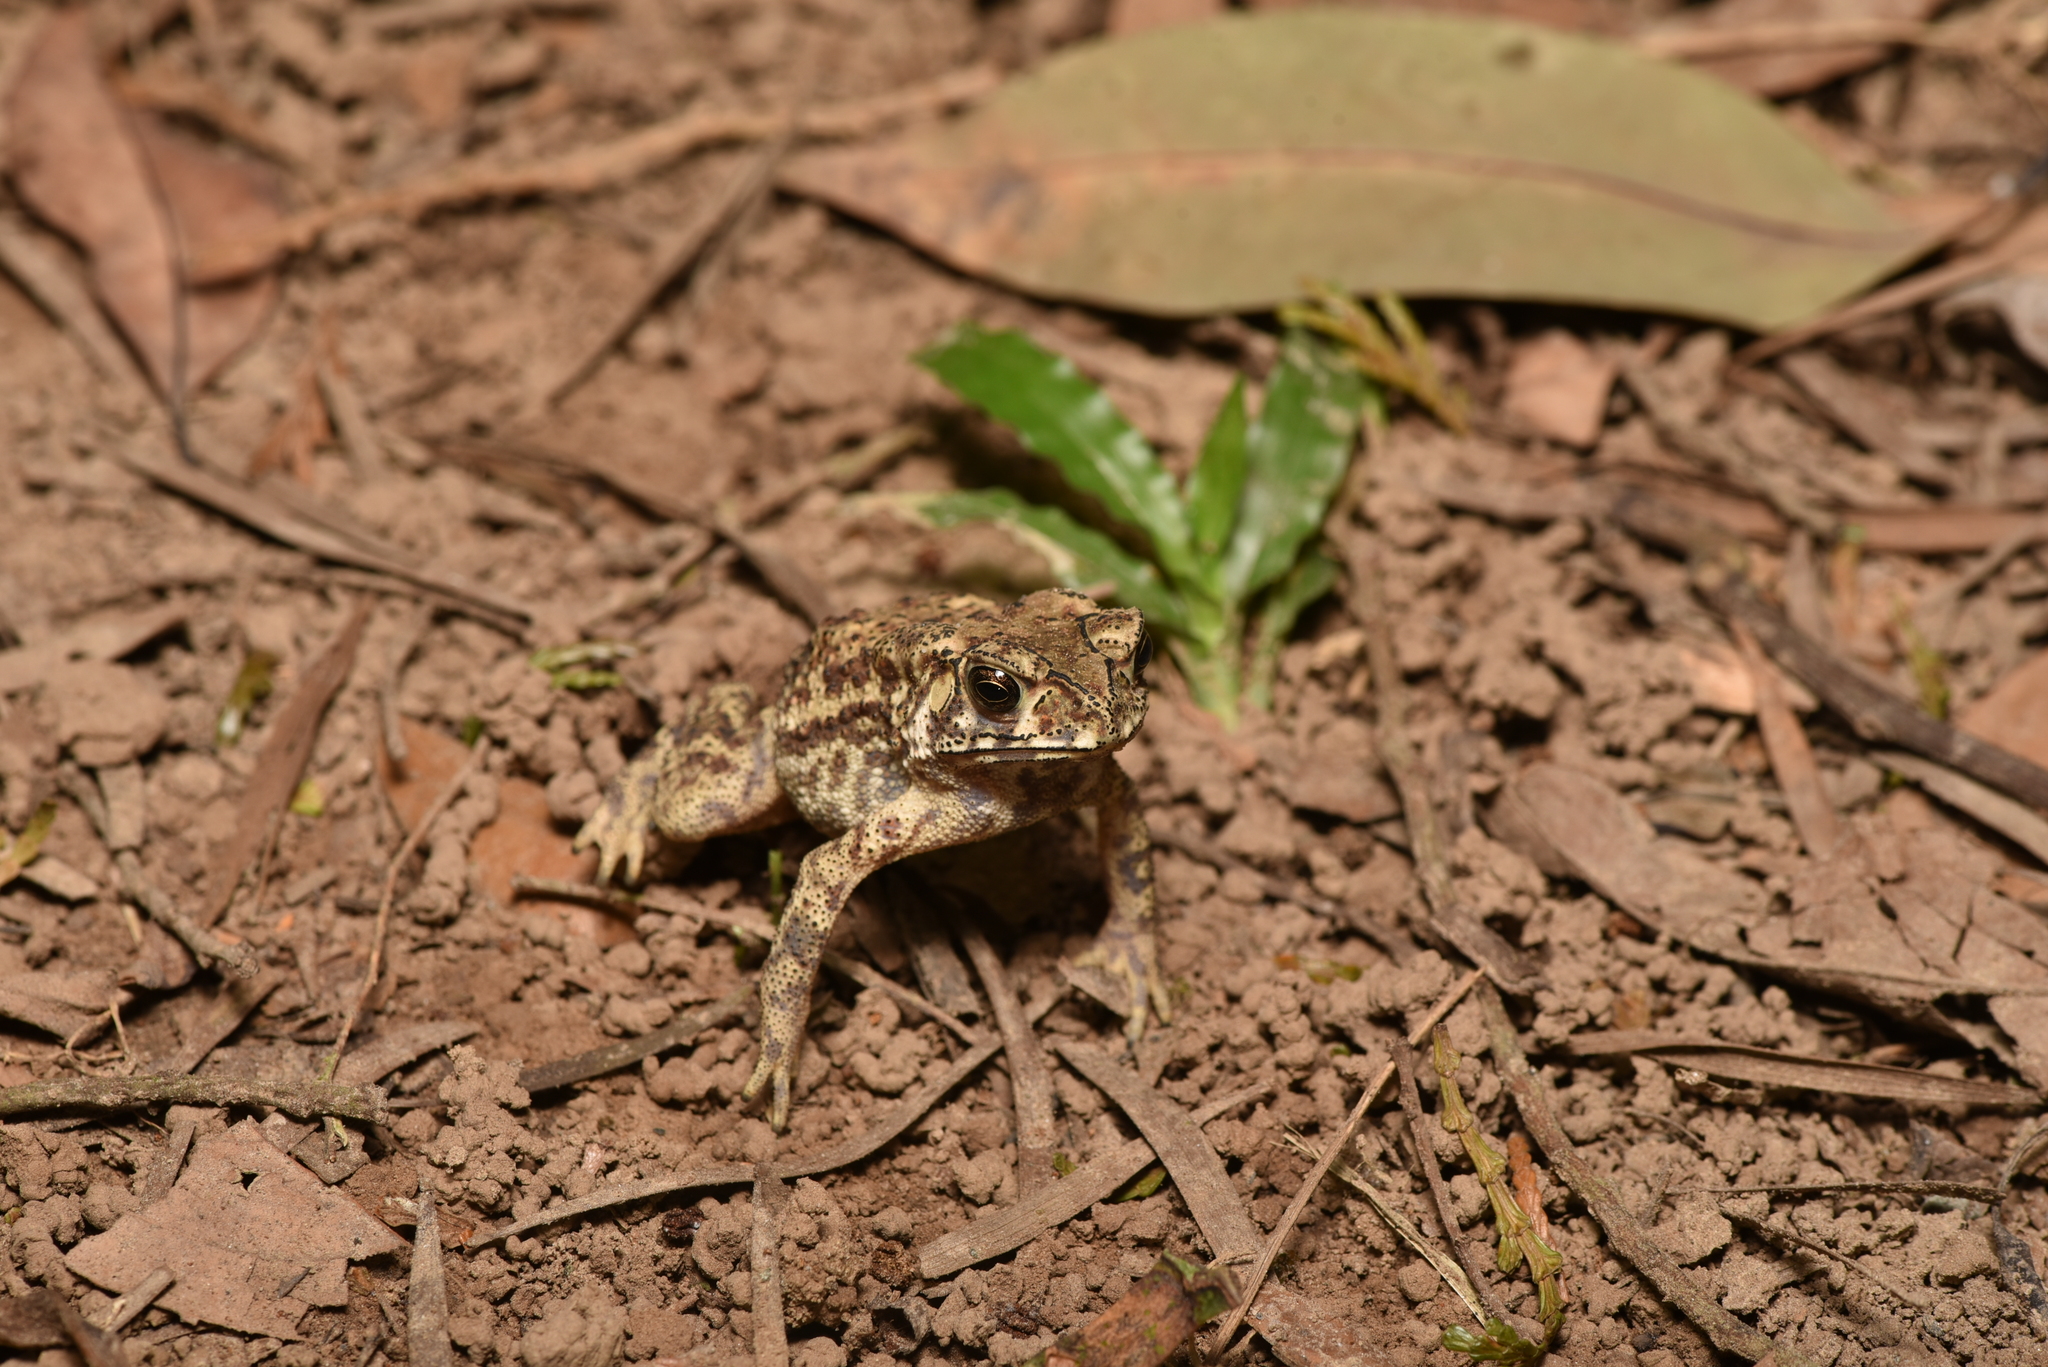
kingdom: Animalia
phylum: Chordata
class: Amphibia
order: Anura
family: Bufonidae
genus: Duttaphrynus
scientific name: Duttaphrynus melanostictus
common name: Common sunda toad
